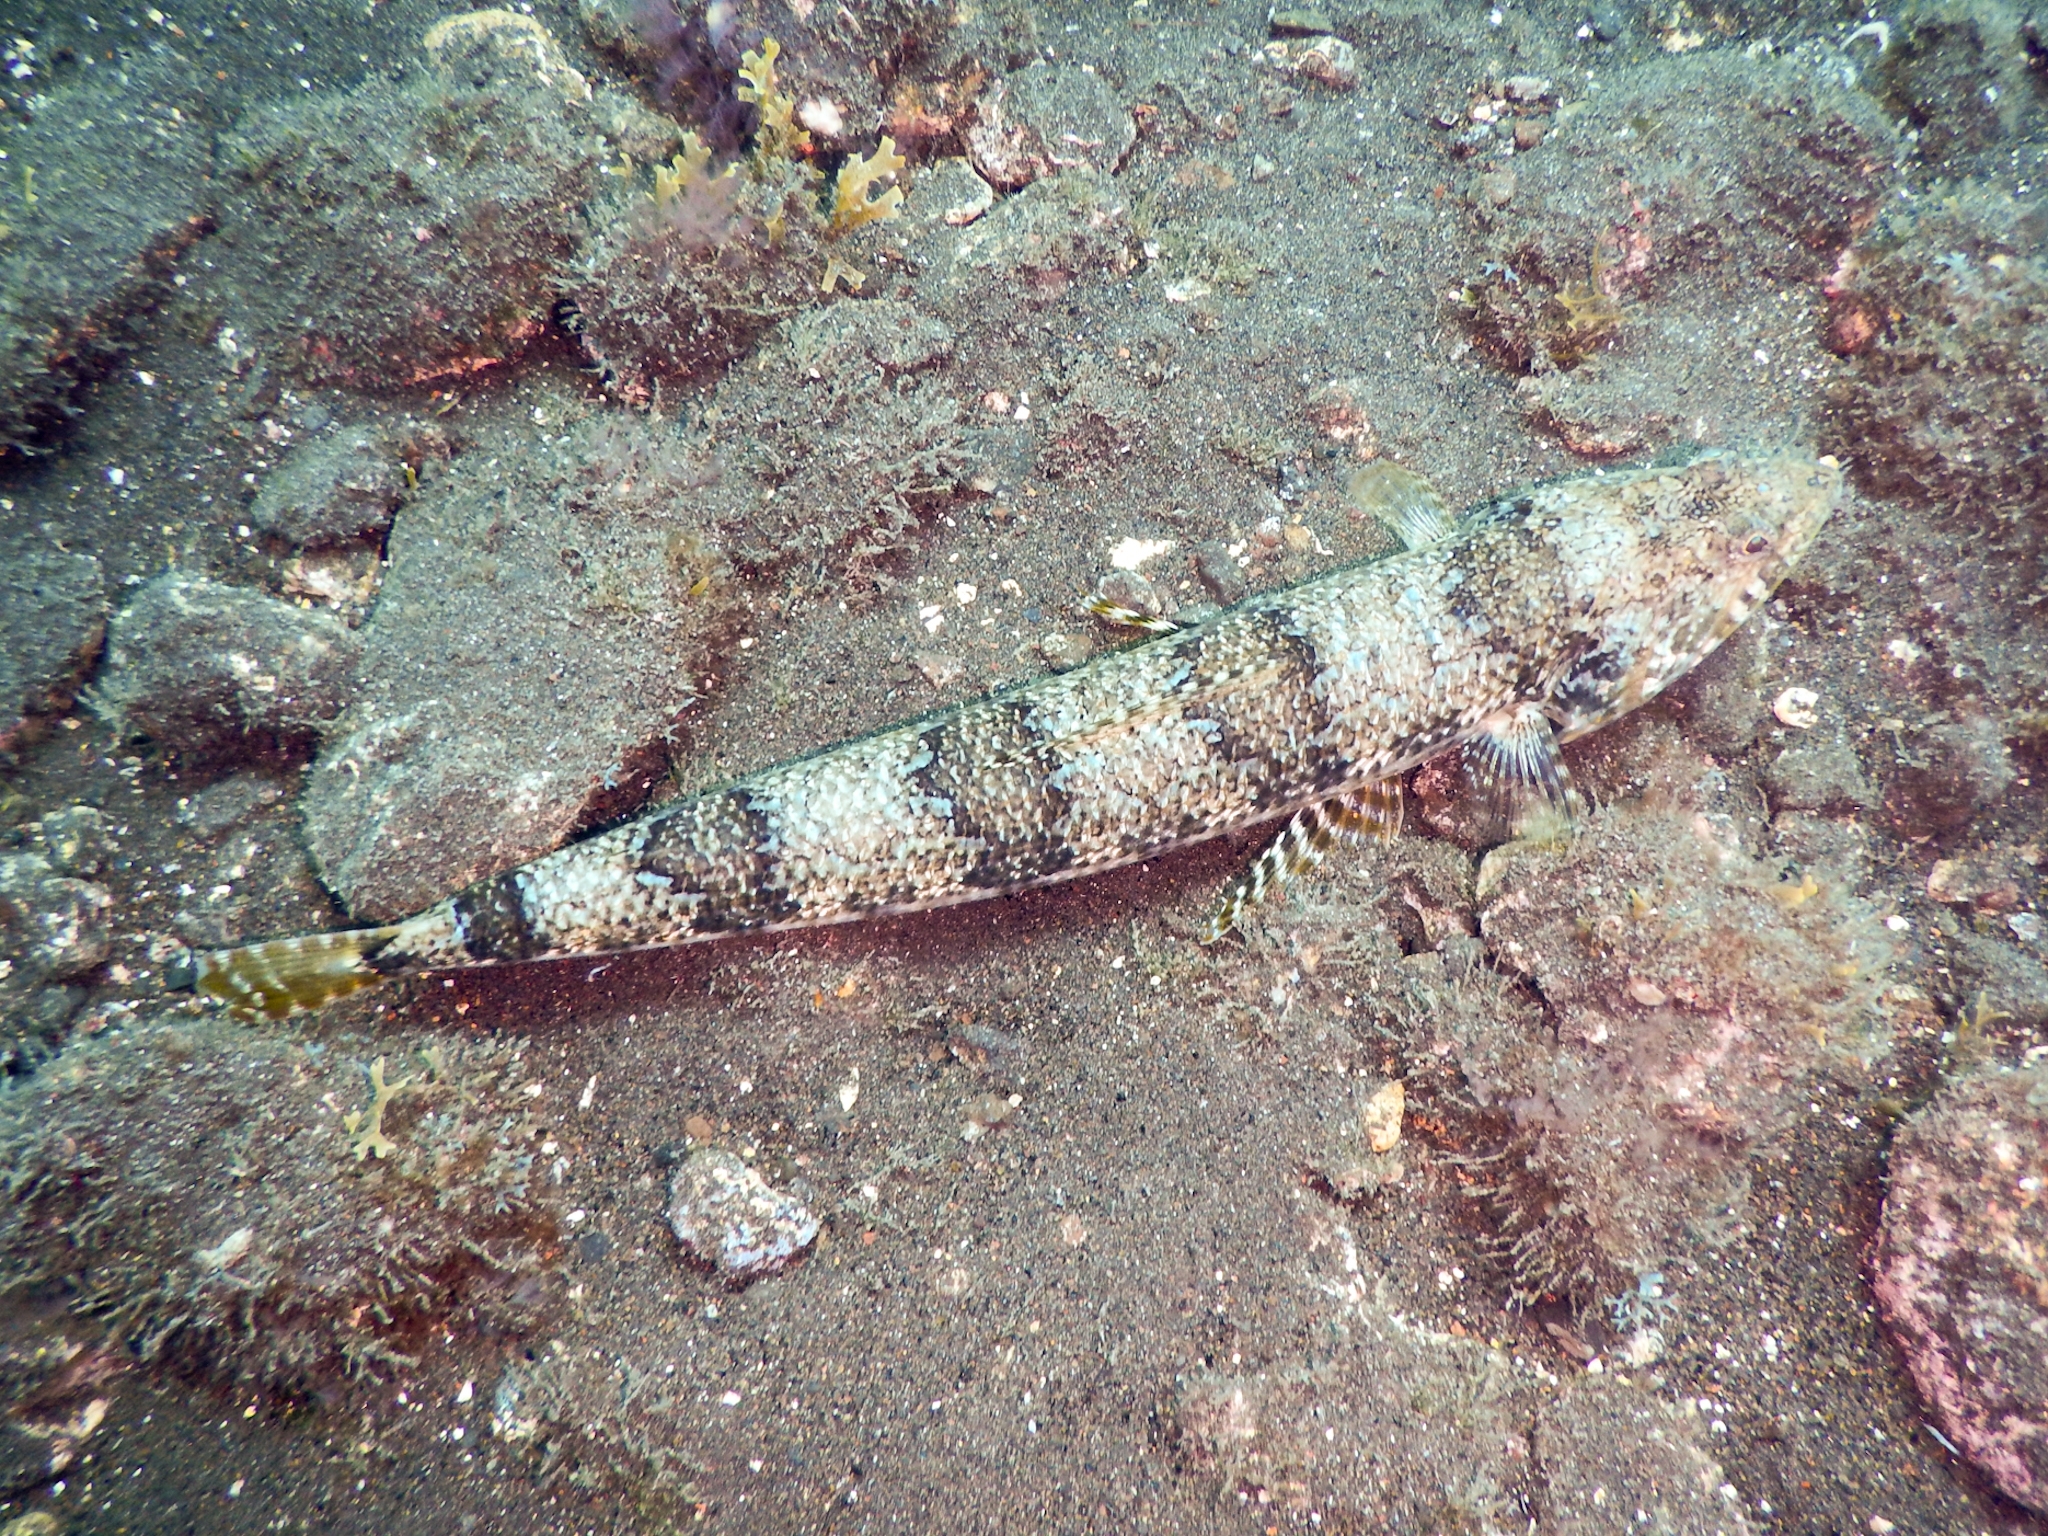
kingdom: Animalia
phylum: Chordata
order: Aulopiformes
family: Synodontidae
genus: Synodus
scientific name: Synodus synodus
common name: Red lizardfish
